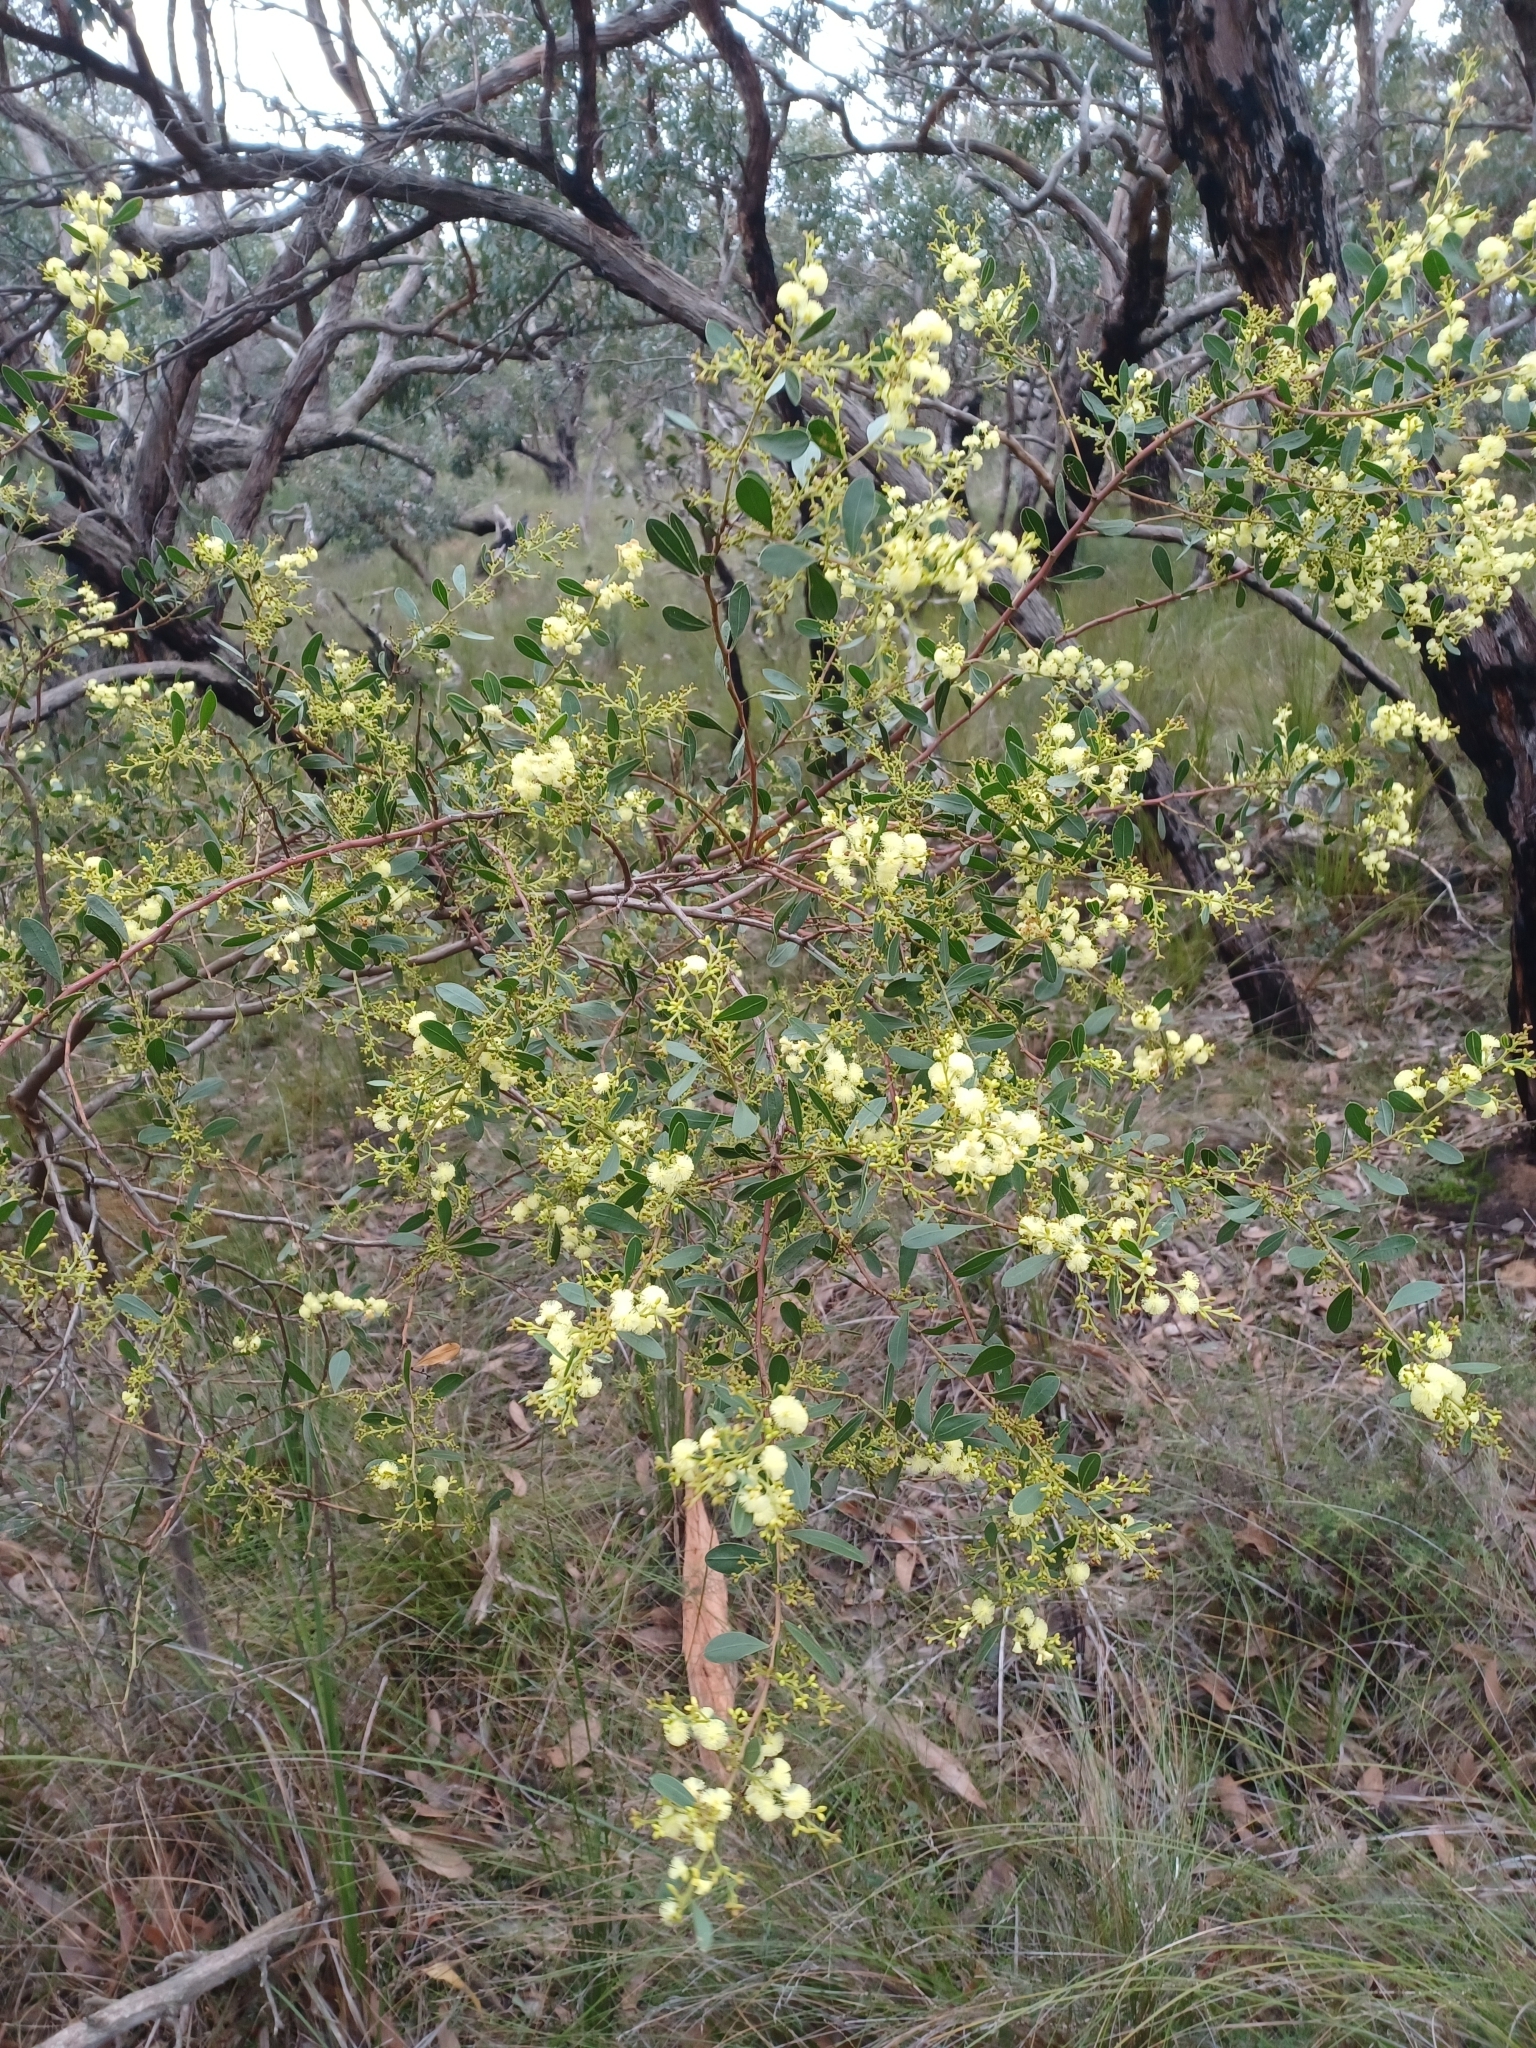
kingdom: Plantae
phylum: Tracheophyta
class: Magnoliopsida
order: Fabales
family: Fabaceae
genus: Acacia
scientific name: Acacia myrtifolia
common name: Myrtle wattle
